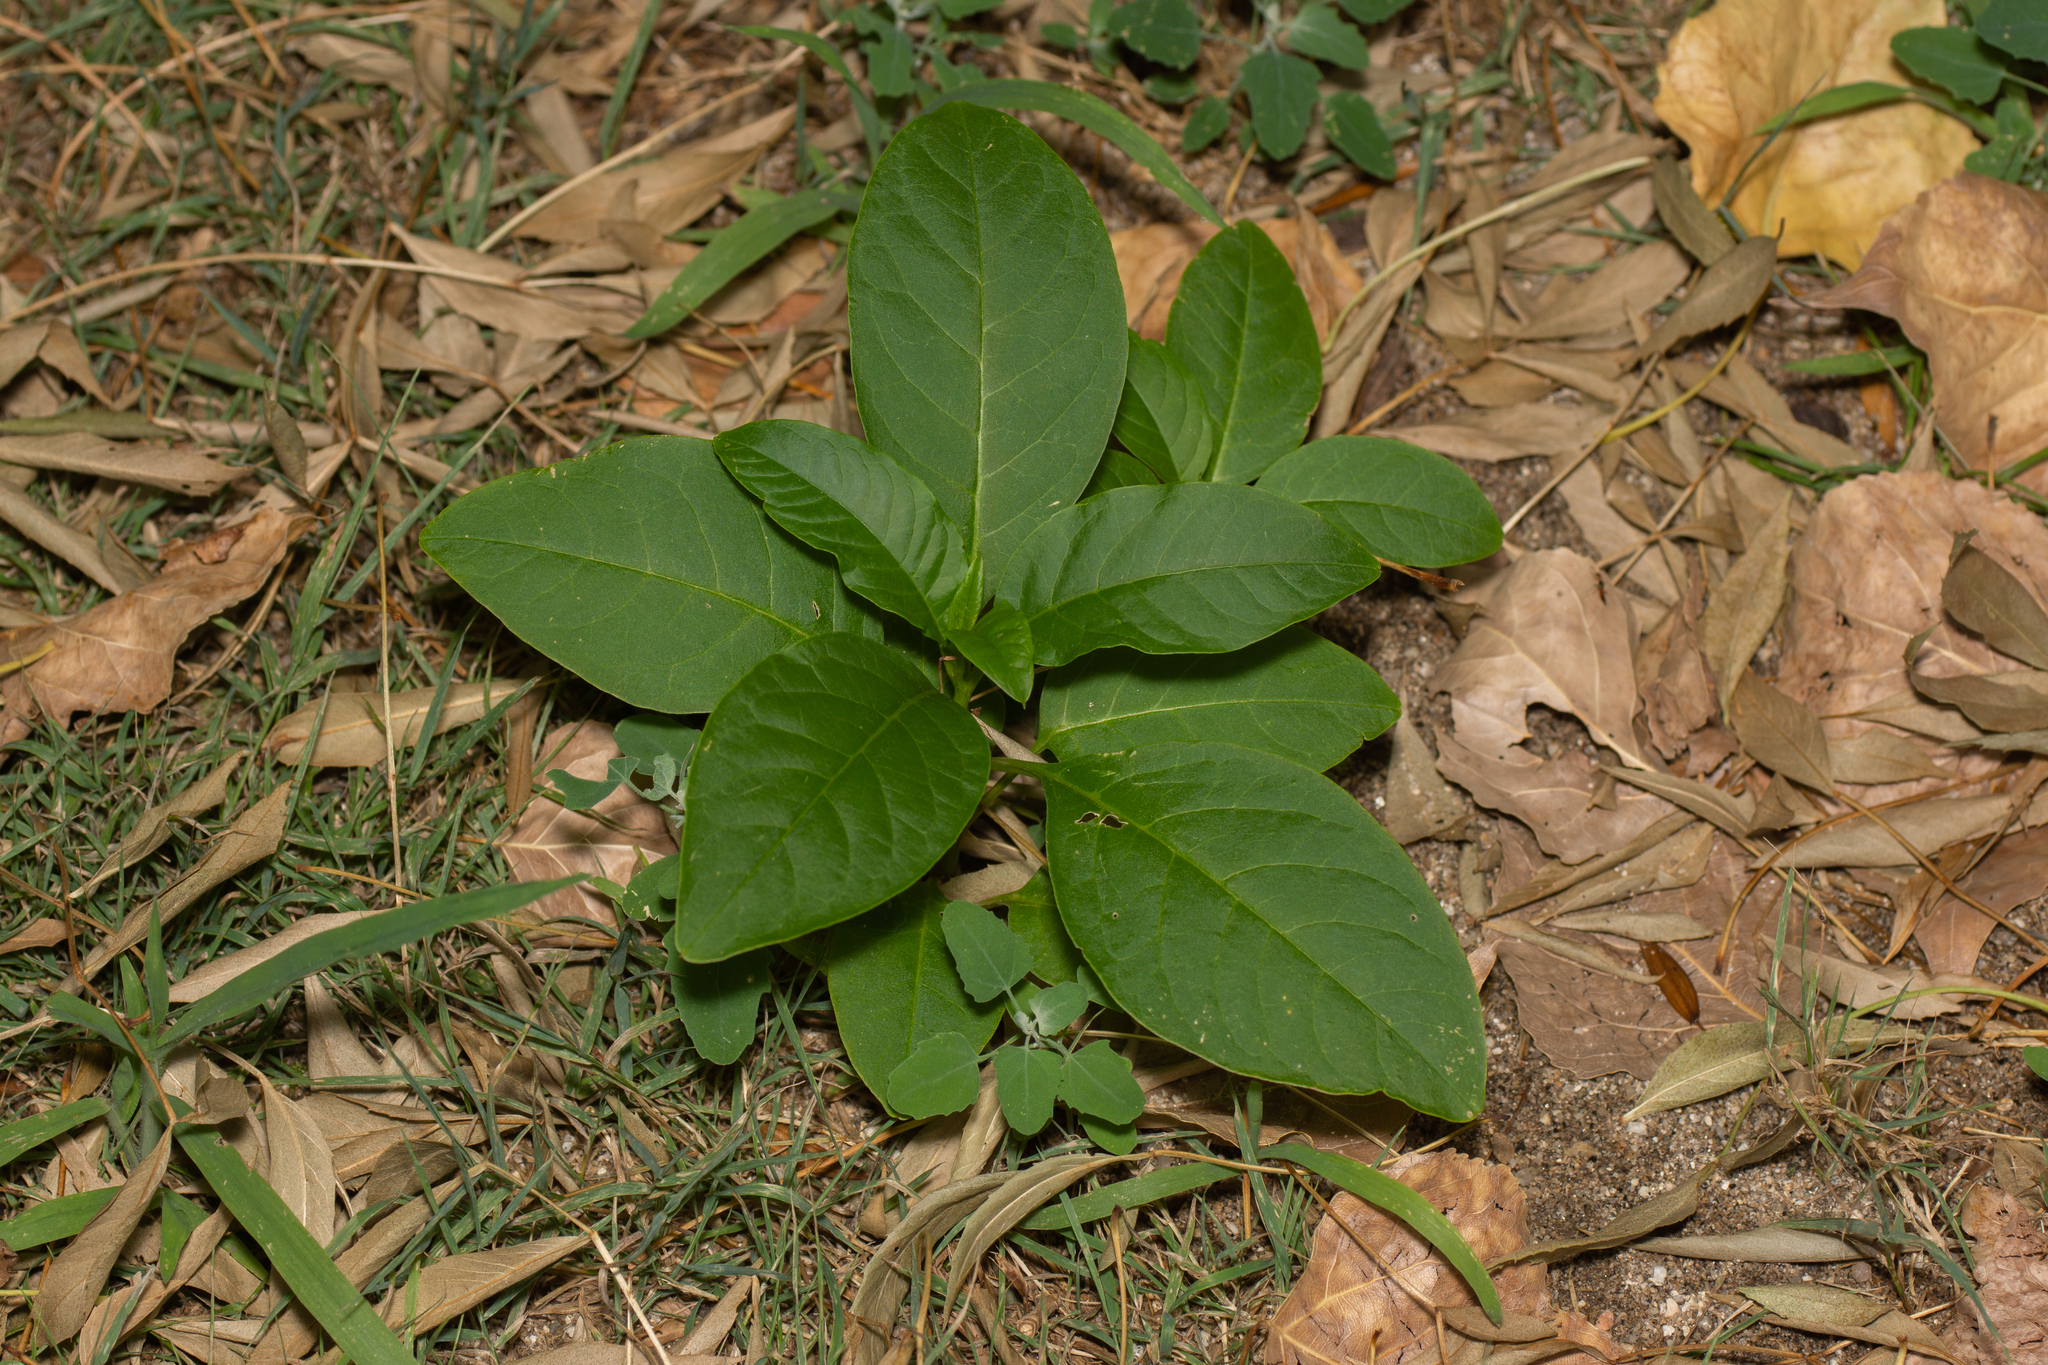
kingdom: Plantae
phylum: Tracheophyta
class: Magnoliopsida
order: Caryophyllales
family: Phytolaccaceae
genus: Phytolacca
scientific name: Phytolacca americana
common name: American pokeweed
